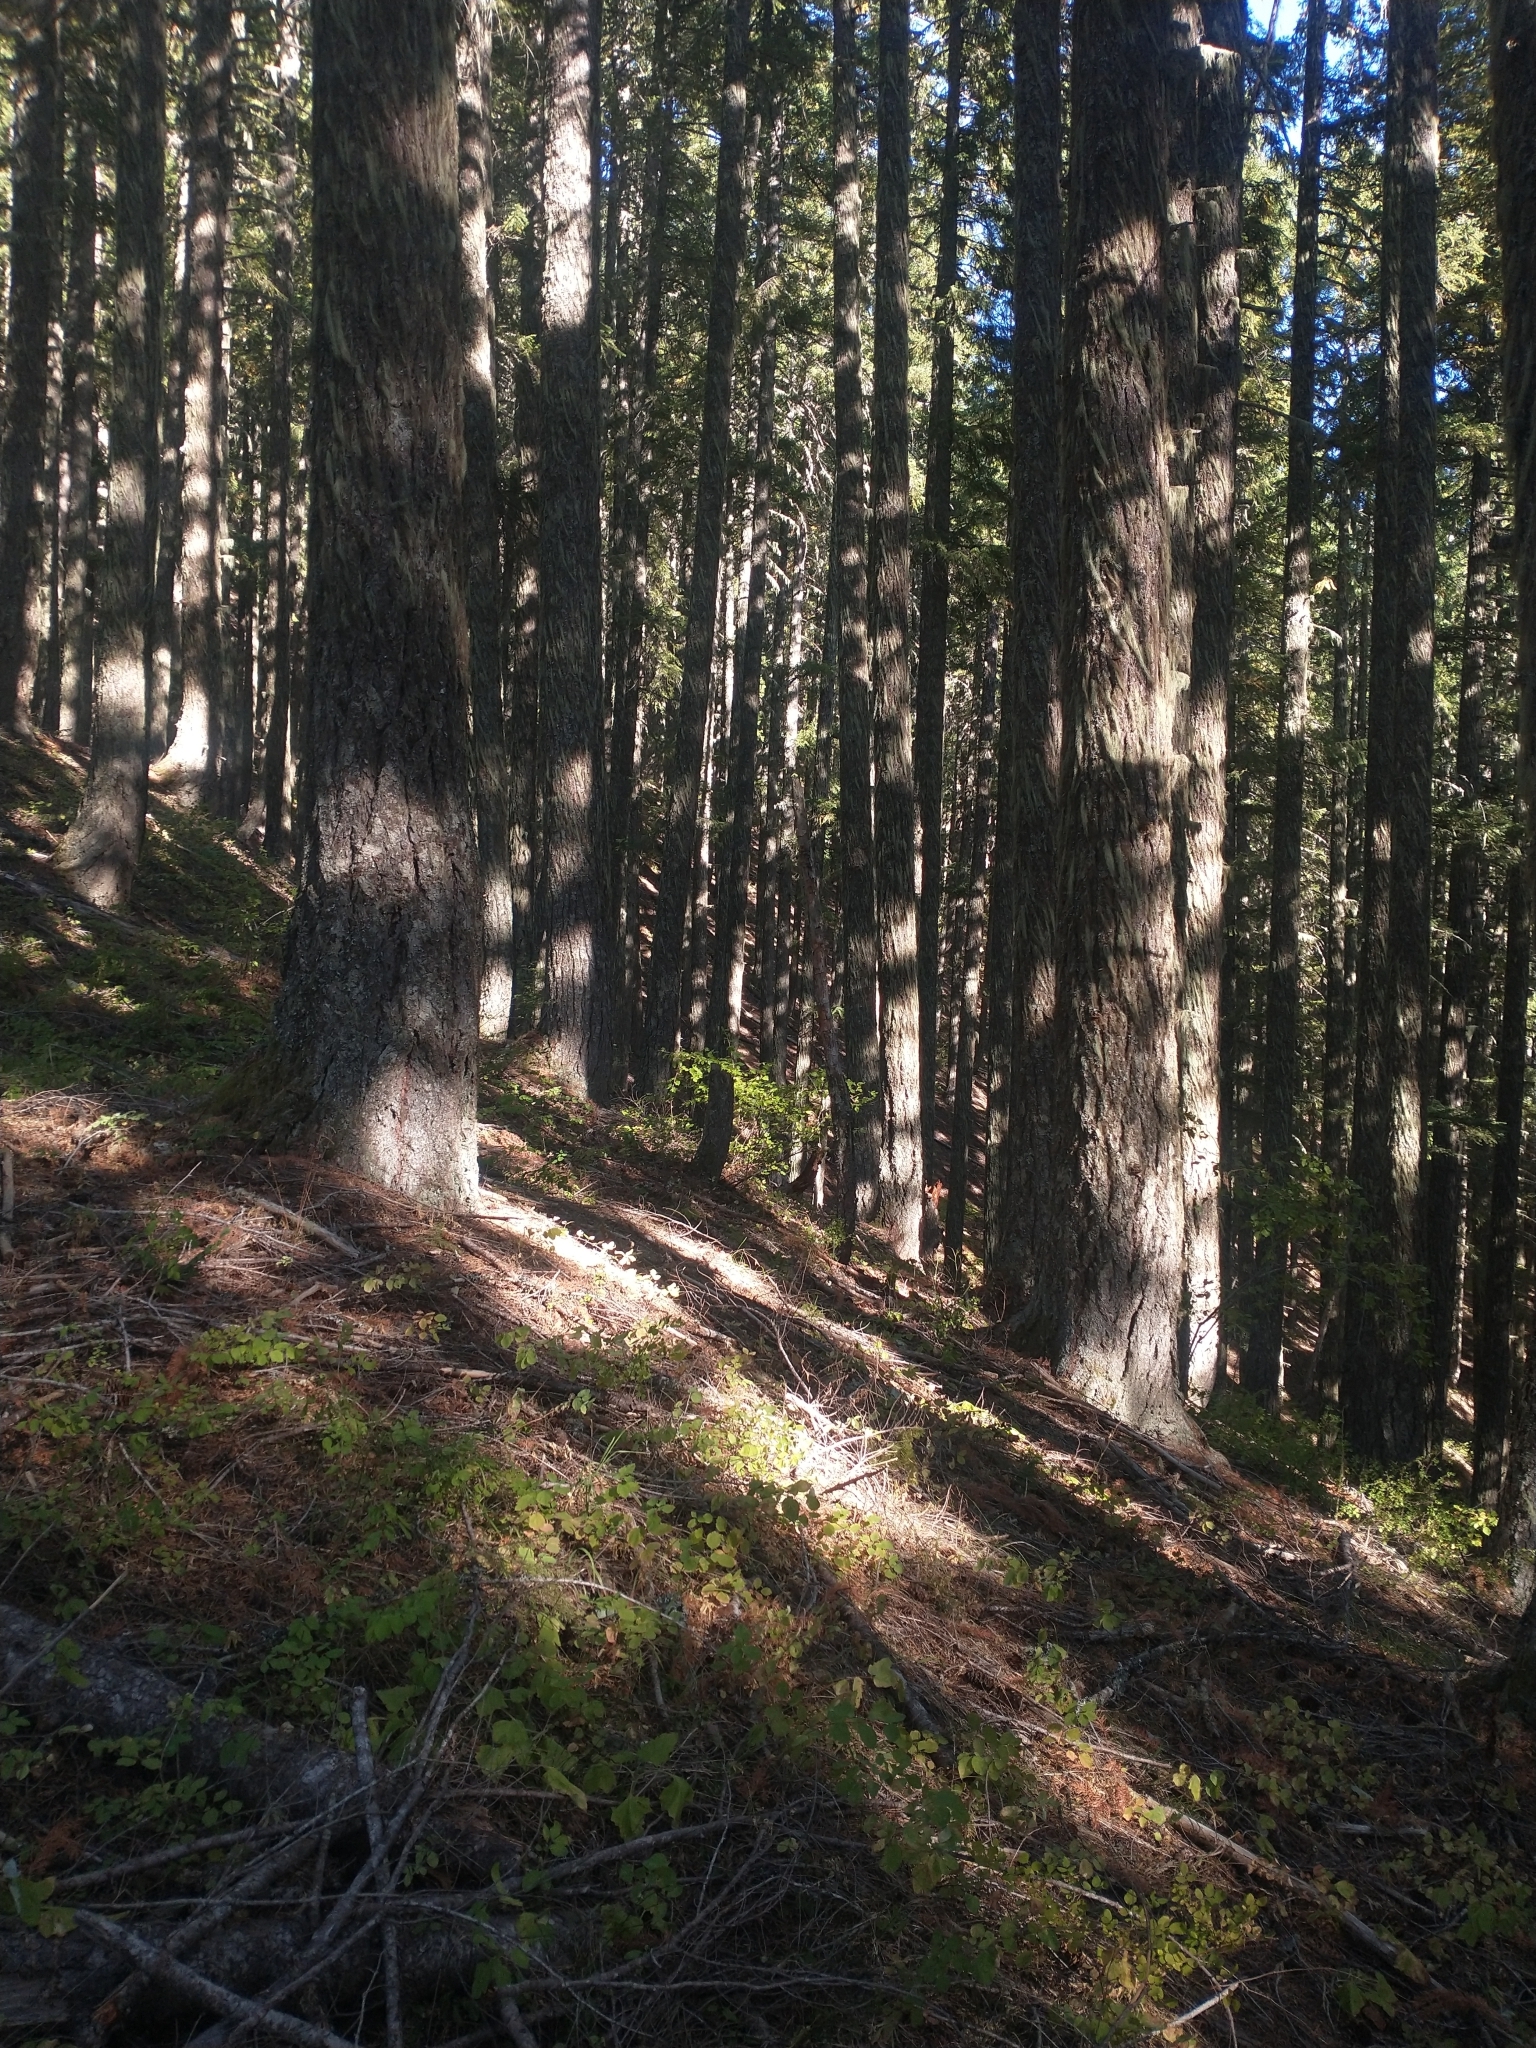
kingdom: Plantae
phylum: Tracheophyta
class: Pinopsida
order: Pinales
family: Pinaceae
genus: Pseudotsuga
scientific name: Pseudotsuga menziesii
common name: Douglas fir
